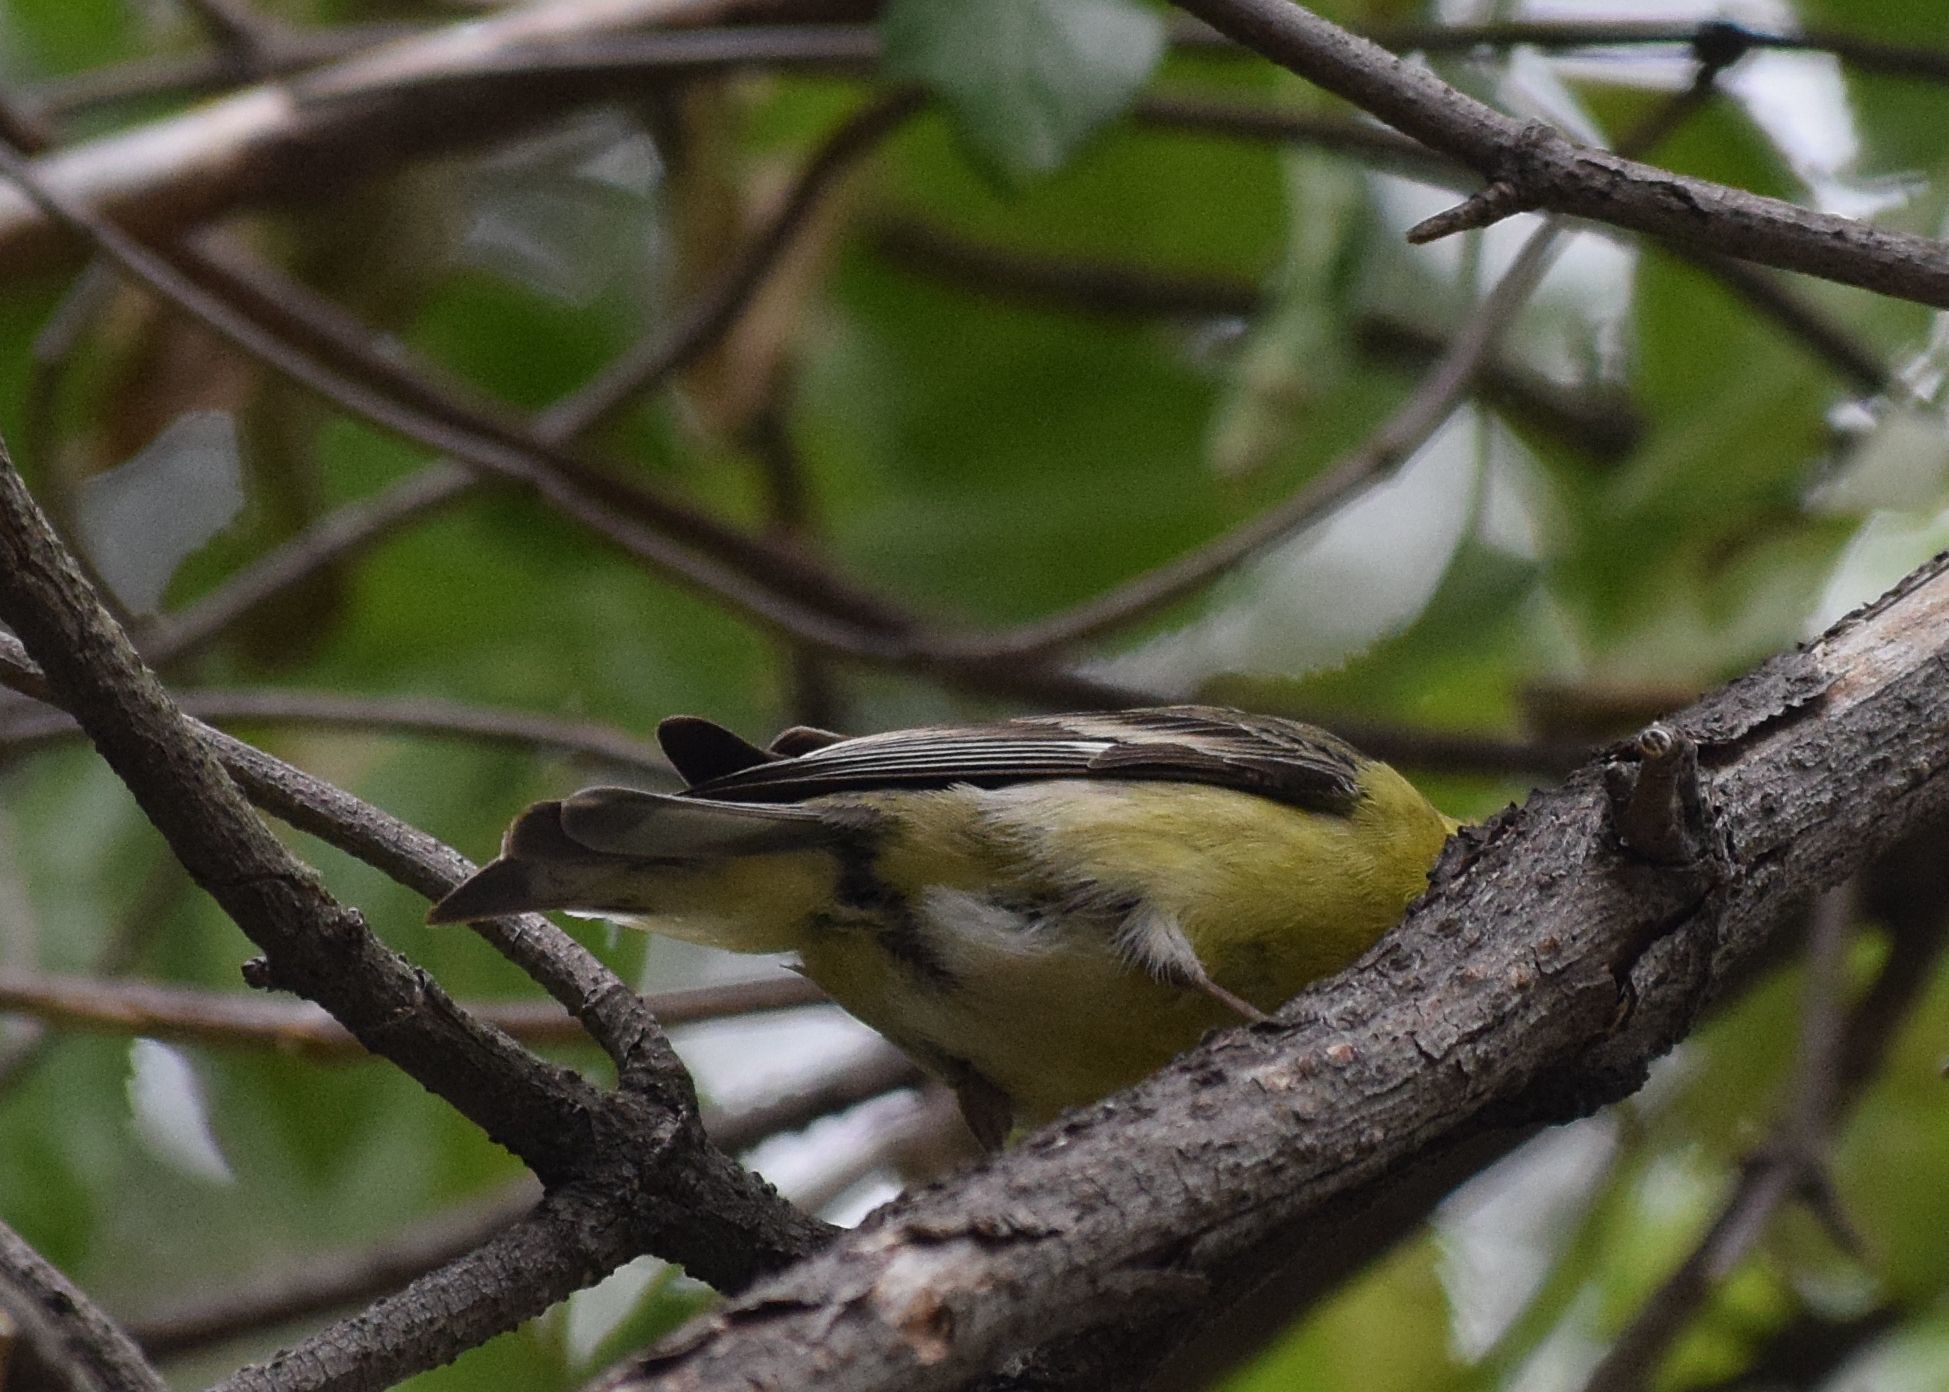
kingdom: Animalia
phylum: Chordata
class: Aves
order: Passeriformes
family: Fringillidae
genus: Spinus
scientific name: Spinus psaltria
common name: Lesser goldfinch
